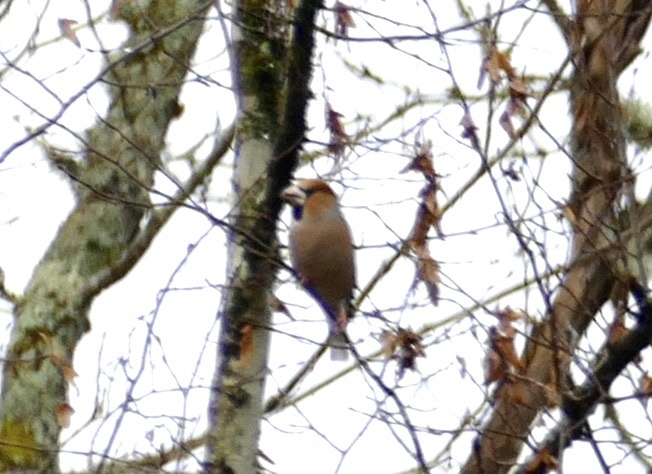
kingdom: Animalia
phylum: Chordata
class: Aves
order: Passeriformes
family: Fringillidae
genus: Coccothraustes
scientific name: Coccothraustes coccothraustes
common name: Hawfinch
